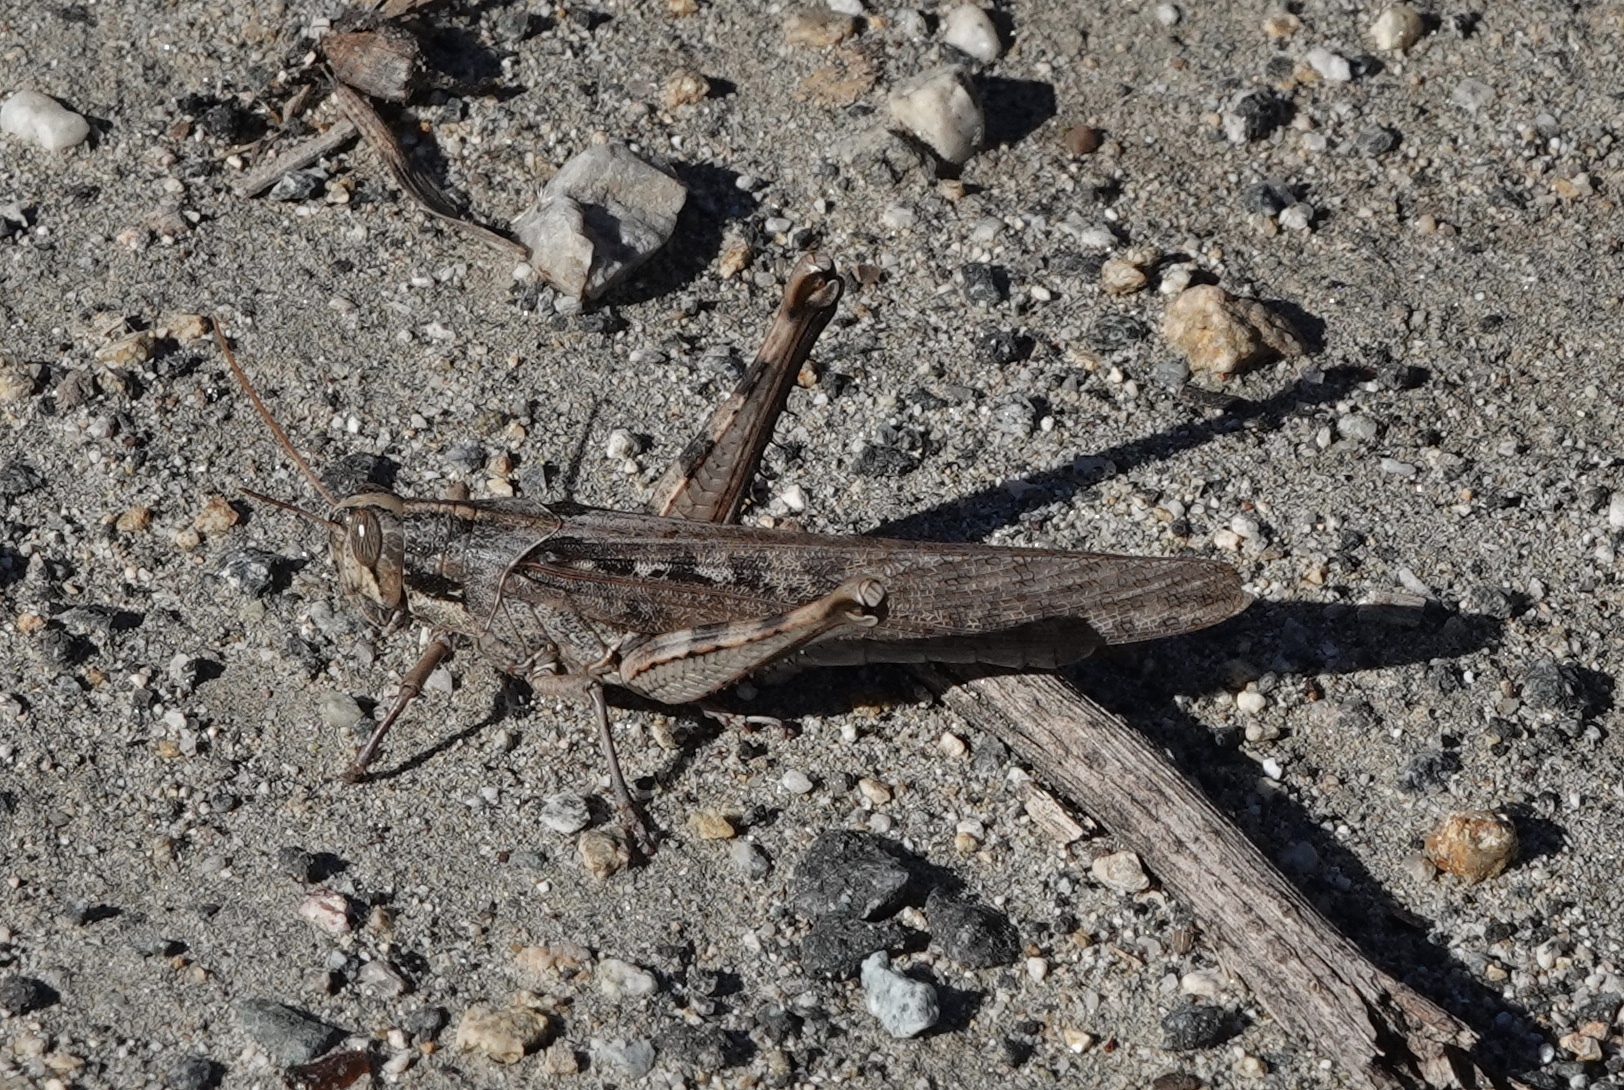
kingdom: Animalia
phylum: Arthropoda
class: Insecta
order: Orthoptera
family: Acrididae
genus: Schistocerca
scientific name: Schistocerca nitens
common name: Vagrant grasshopper
